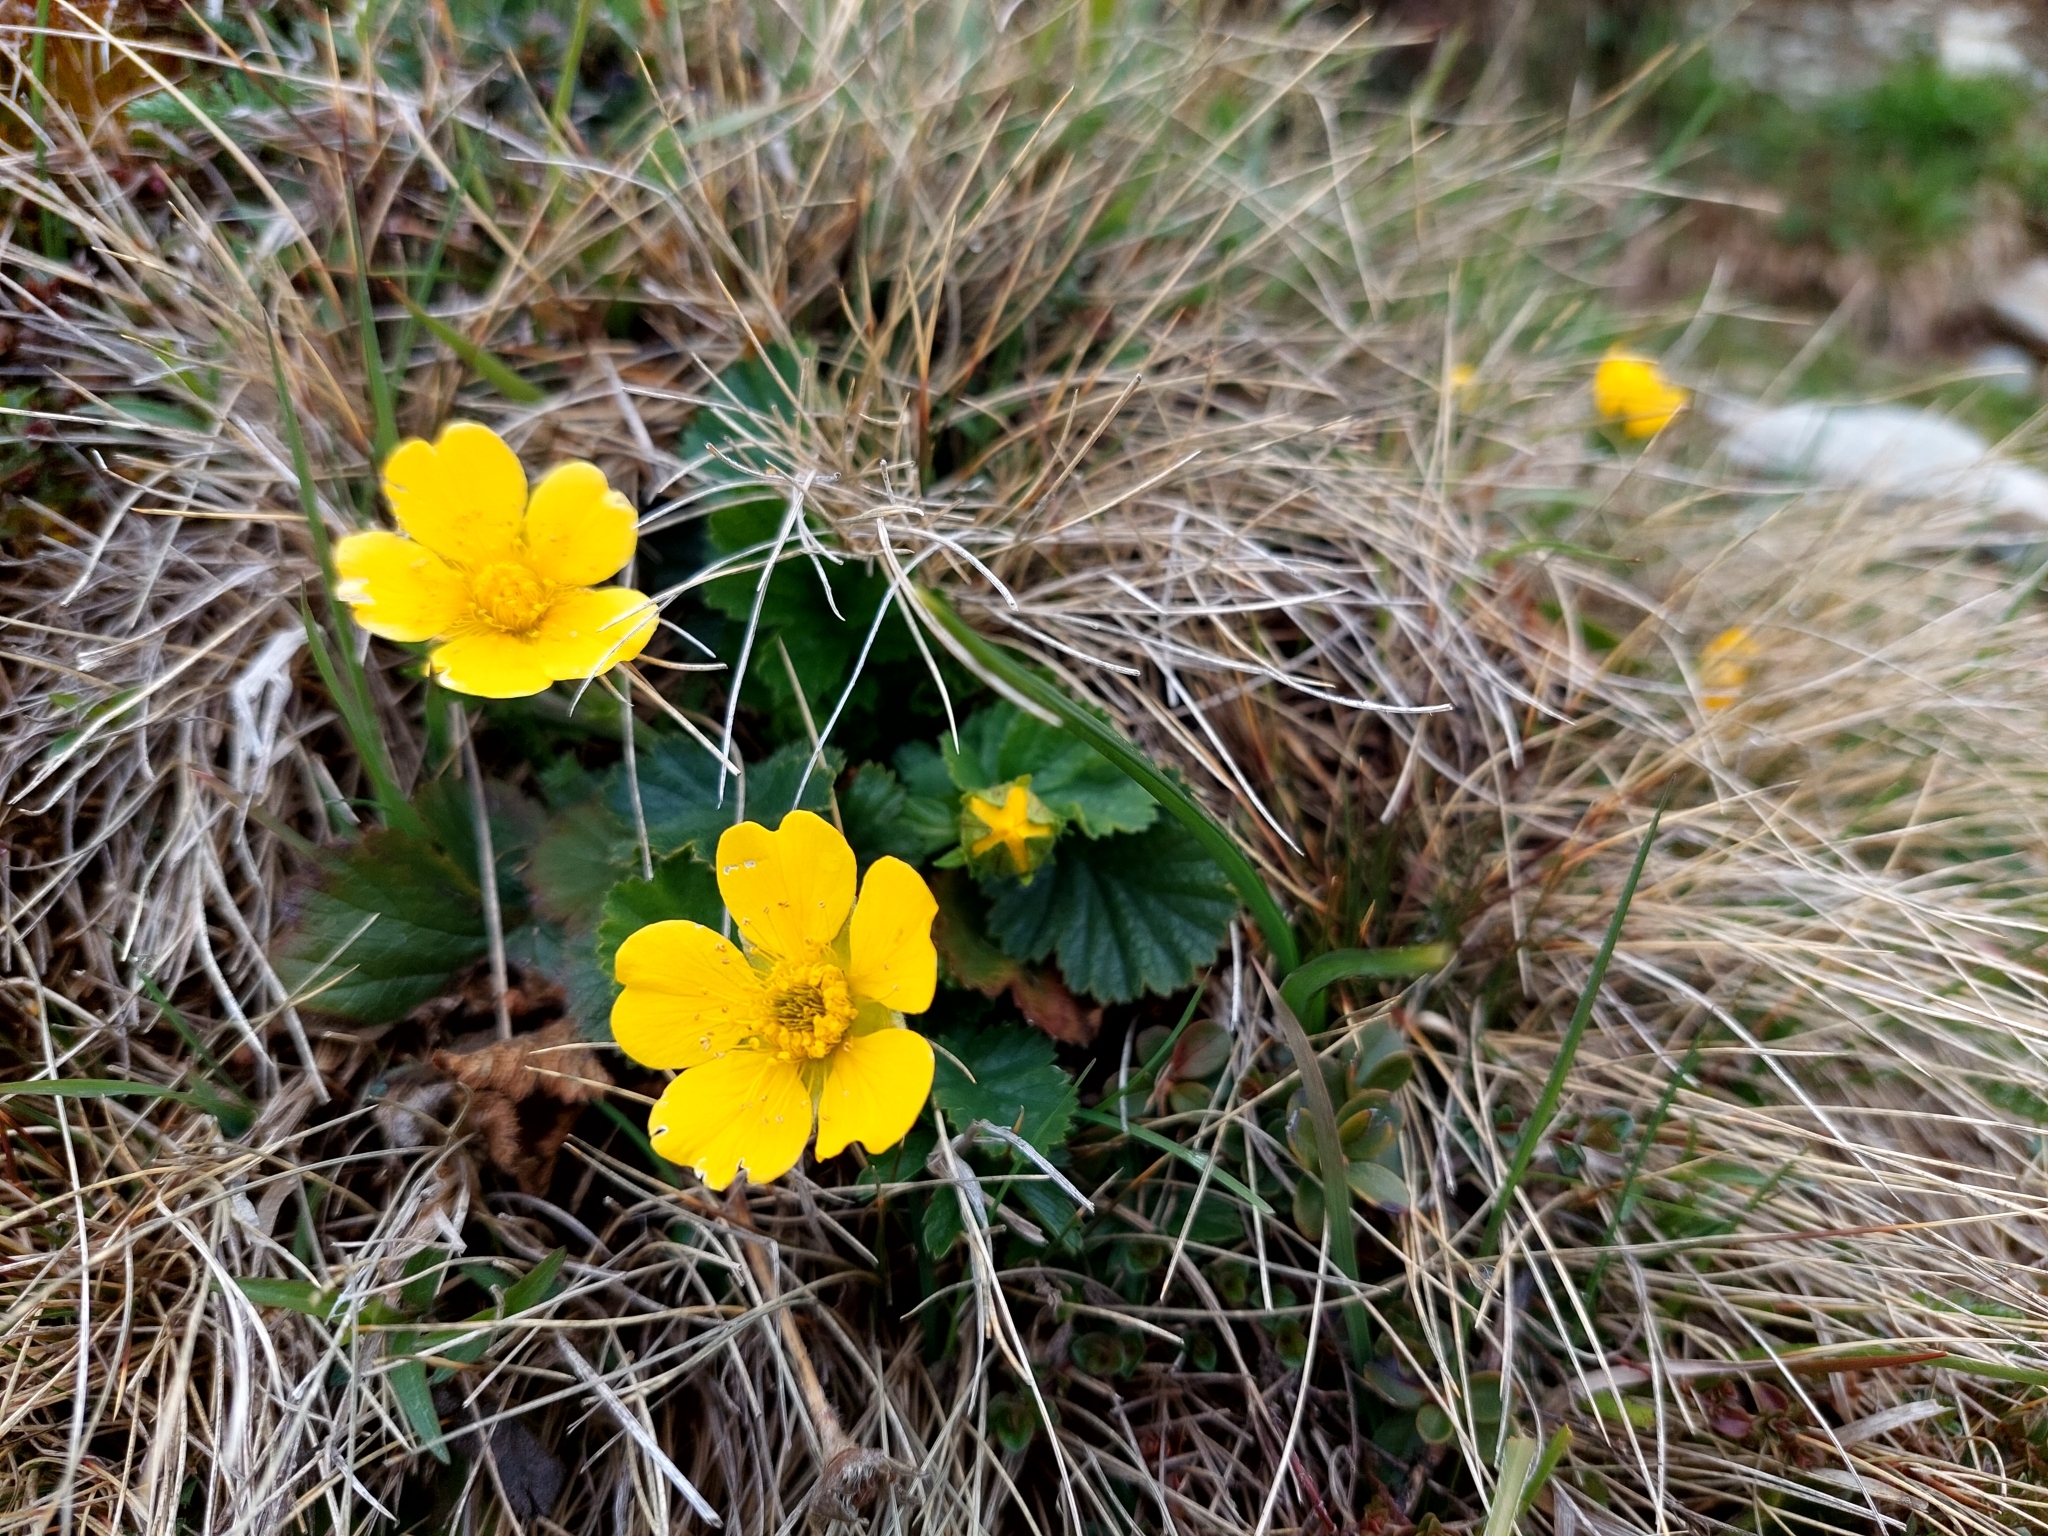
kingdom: Plantae
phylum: Tracheophyta
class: Magnoliopsida
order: Rosales
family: Rosaceae
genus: Geum
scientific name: Geum montanum
